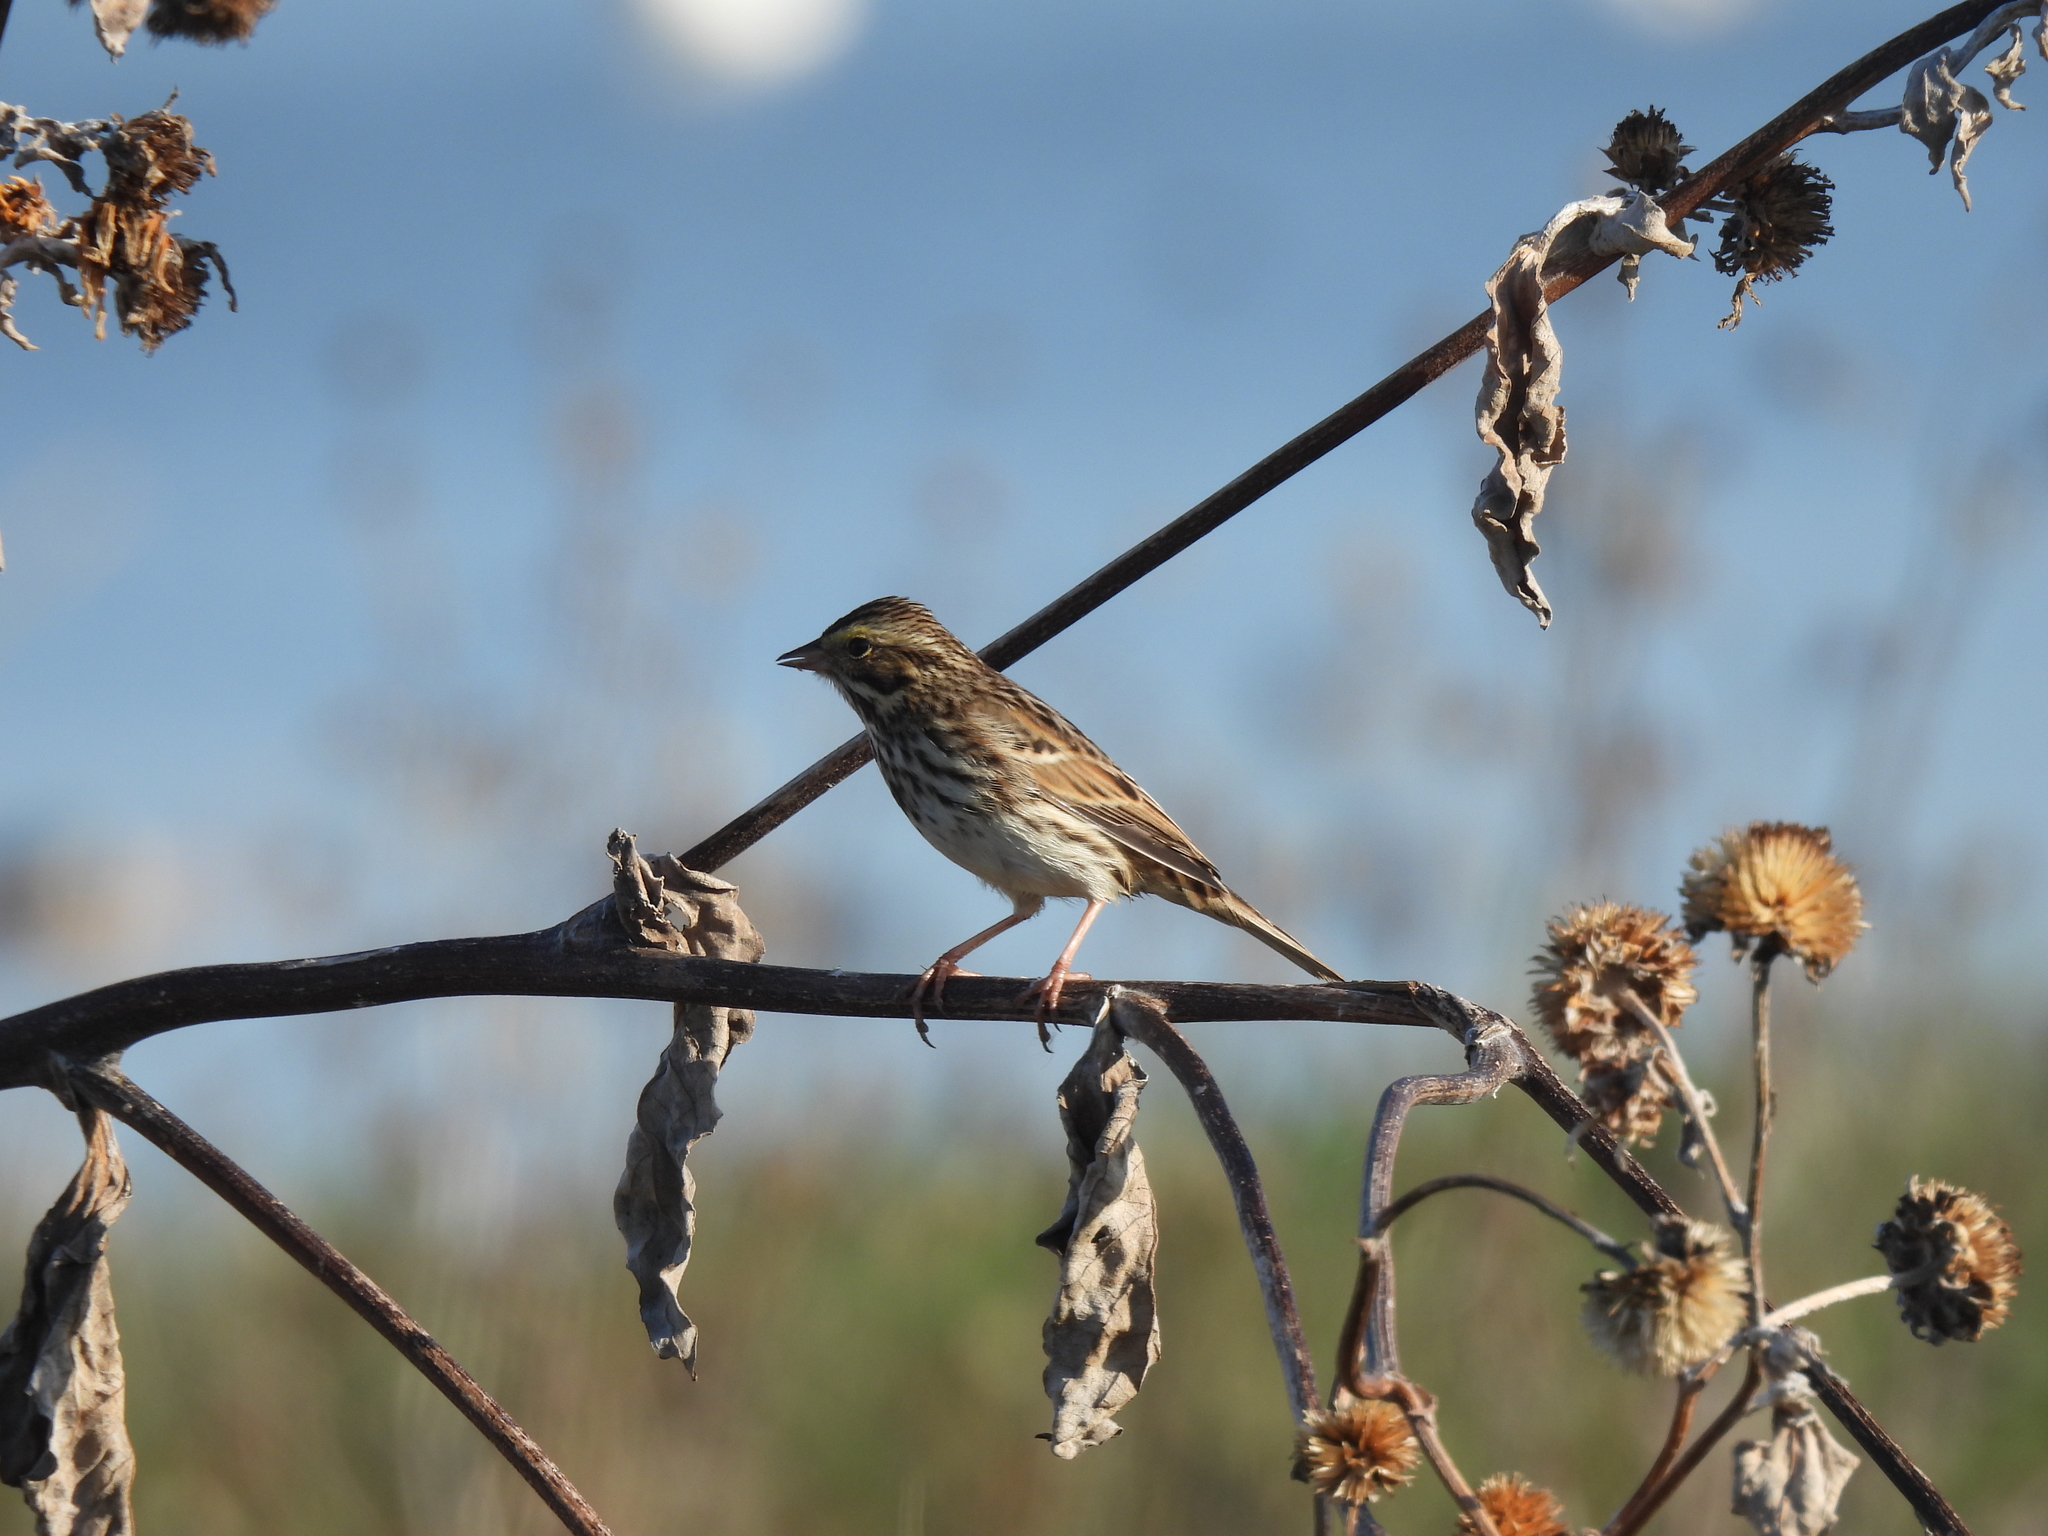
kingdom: Animalia
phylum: Chordata
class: Aves
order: Passeriformes
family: Passerellidae
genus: Passerculus
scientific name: Passerculus sandwichensis
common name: Savannah sparrow
